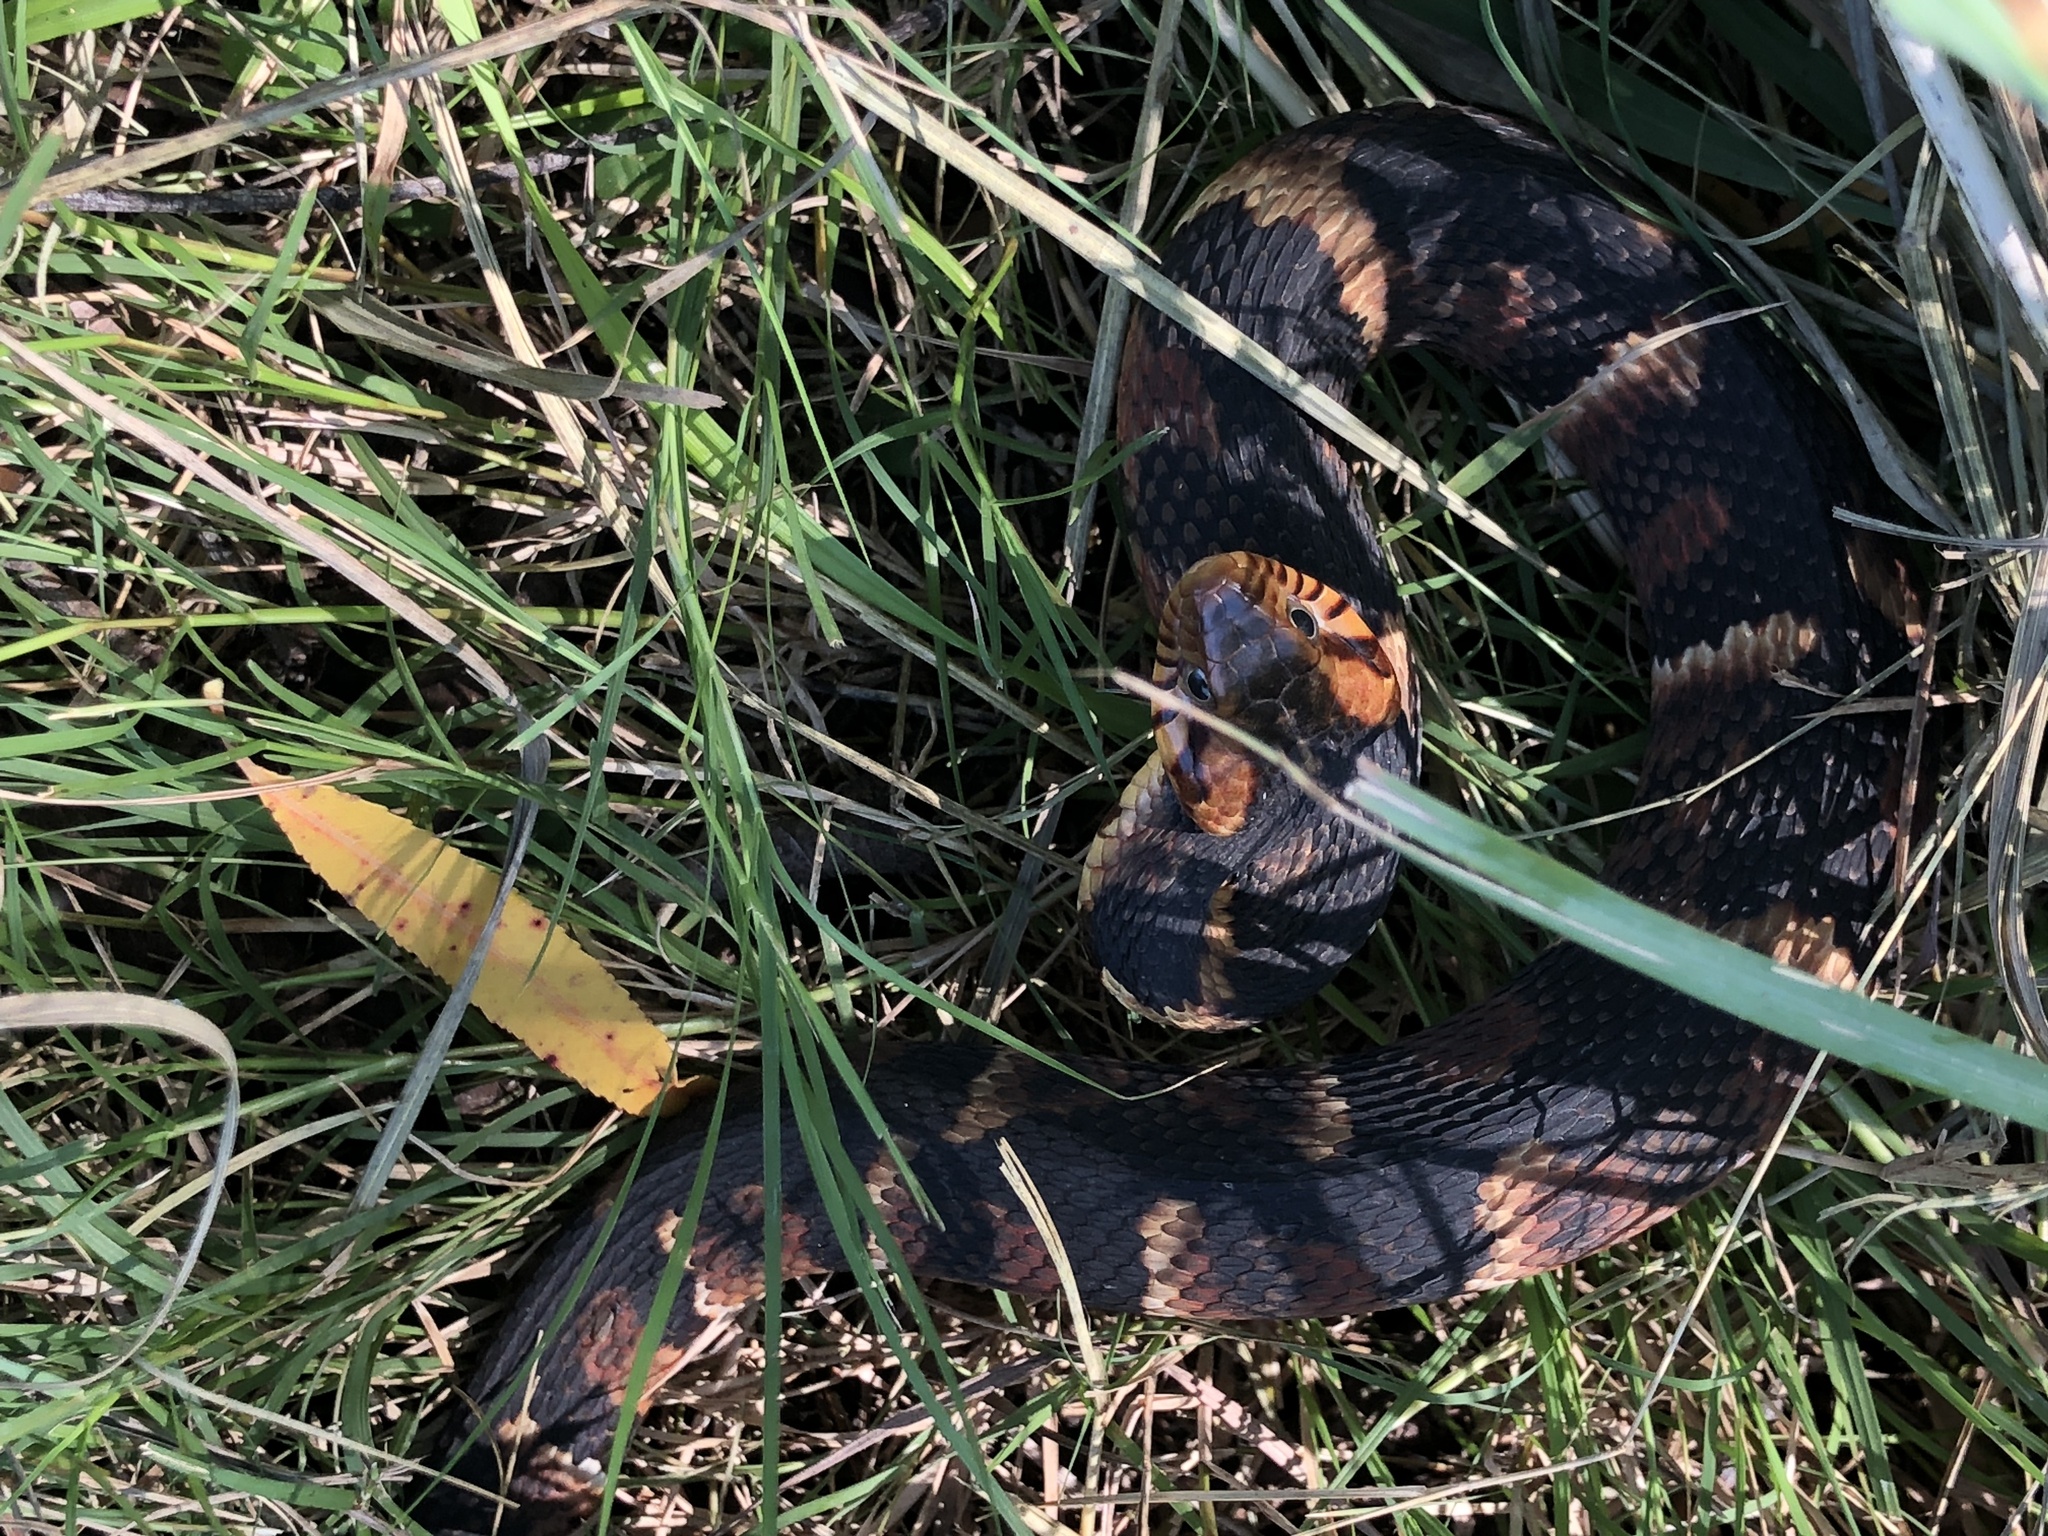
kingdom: Animalia
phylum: Chordata
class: Squamata
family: Colubridae
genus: Nerodia
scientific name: Nerodia fasciata
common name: Southern water snake
